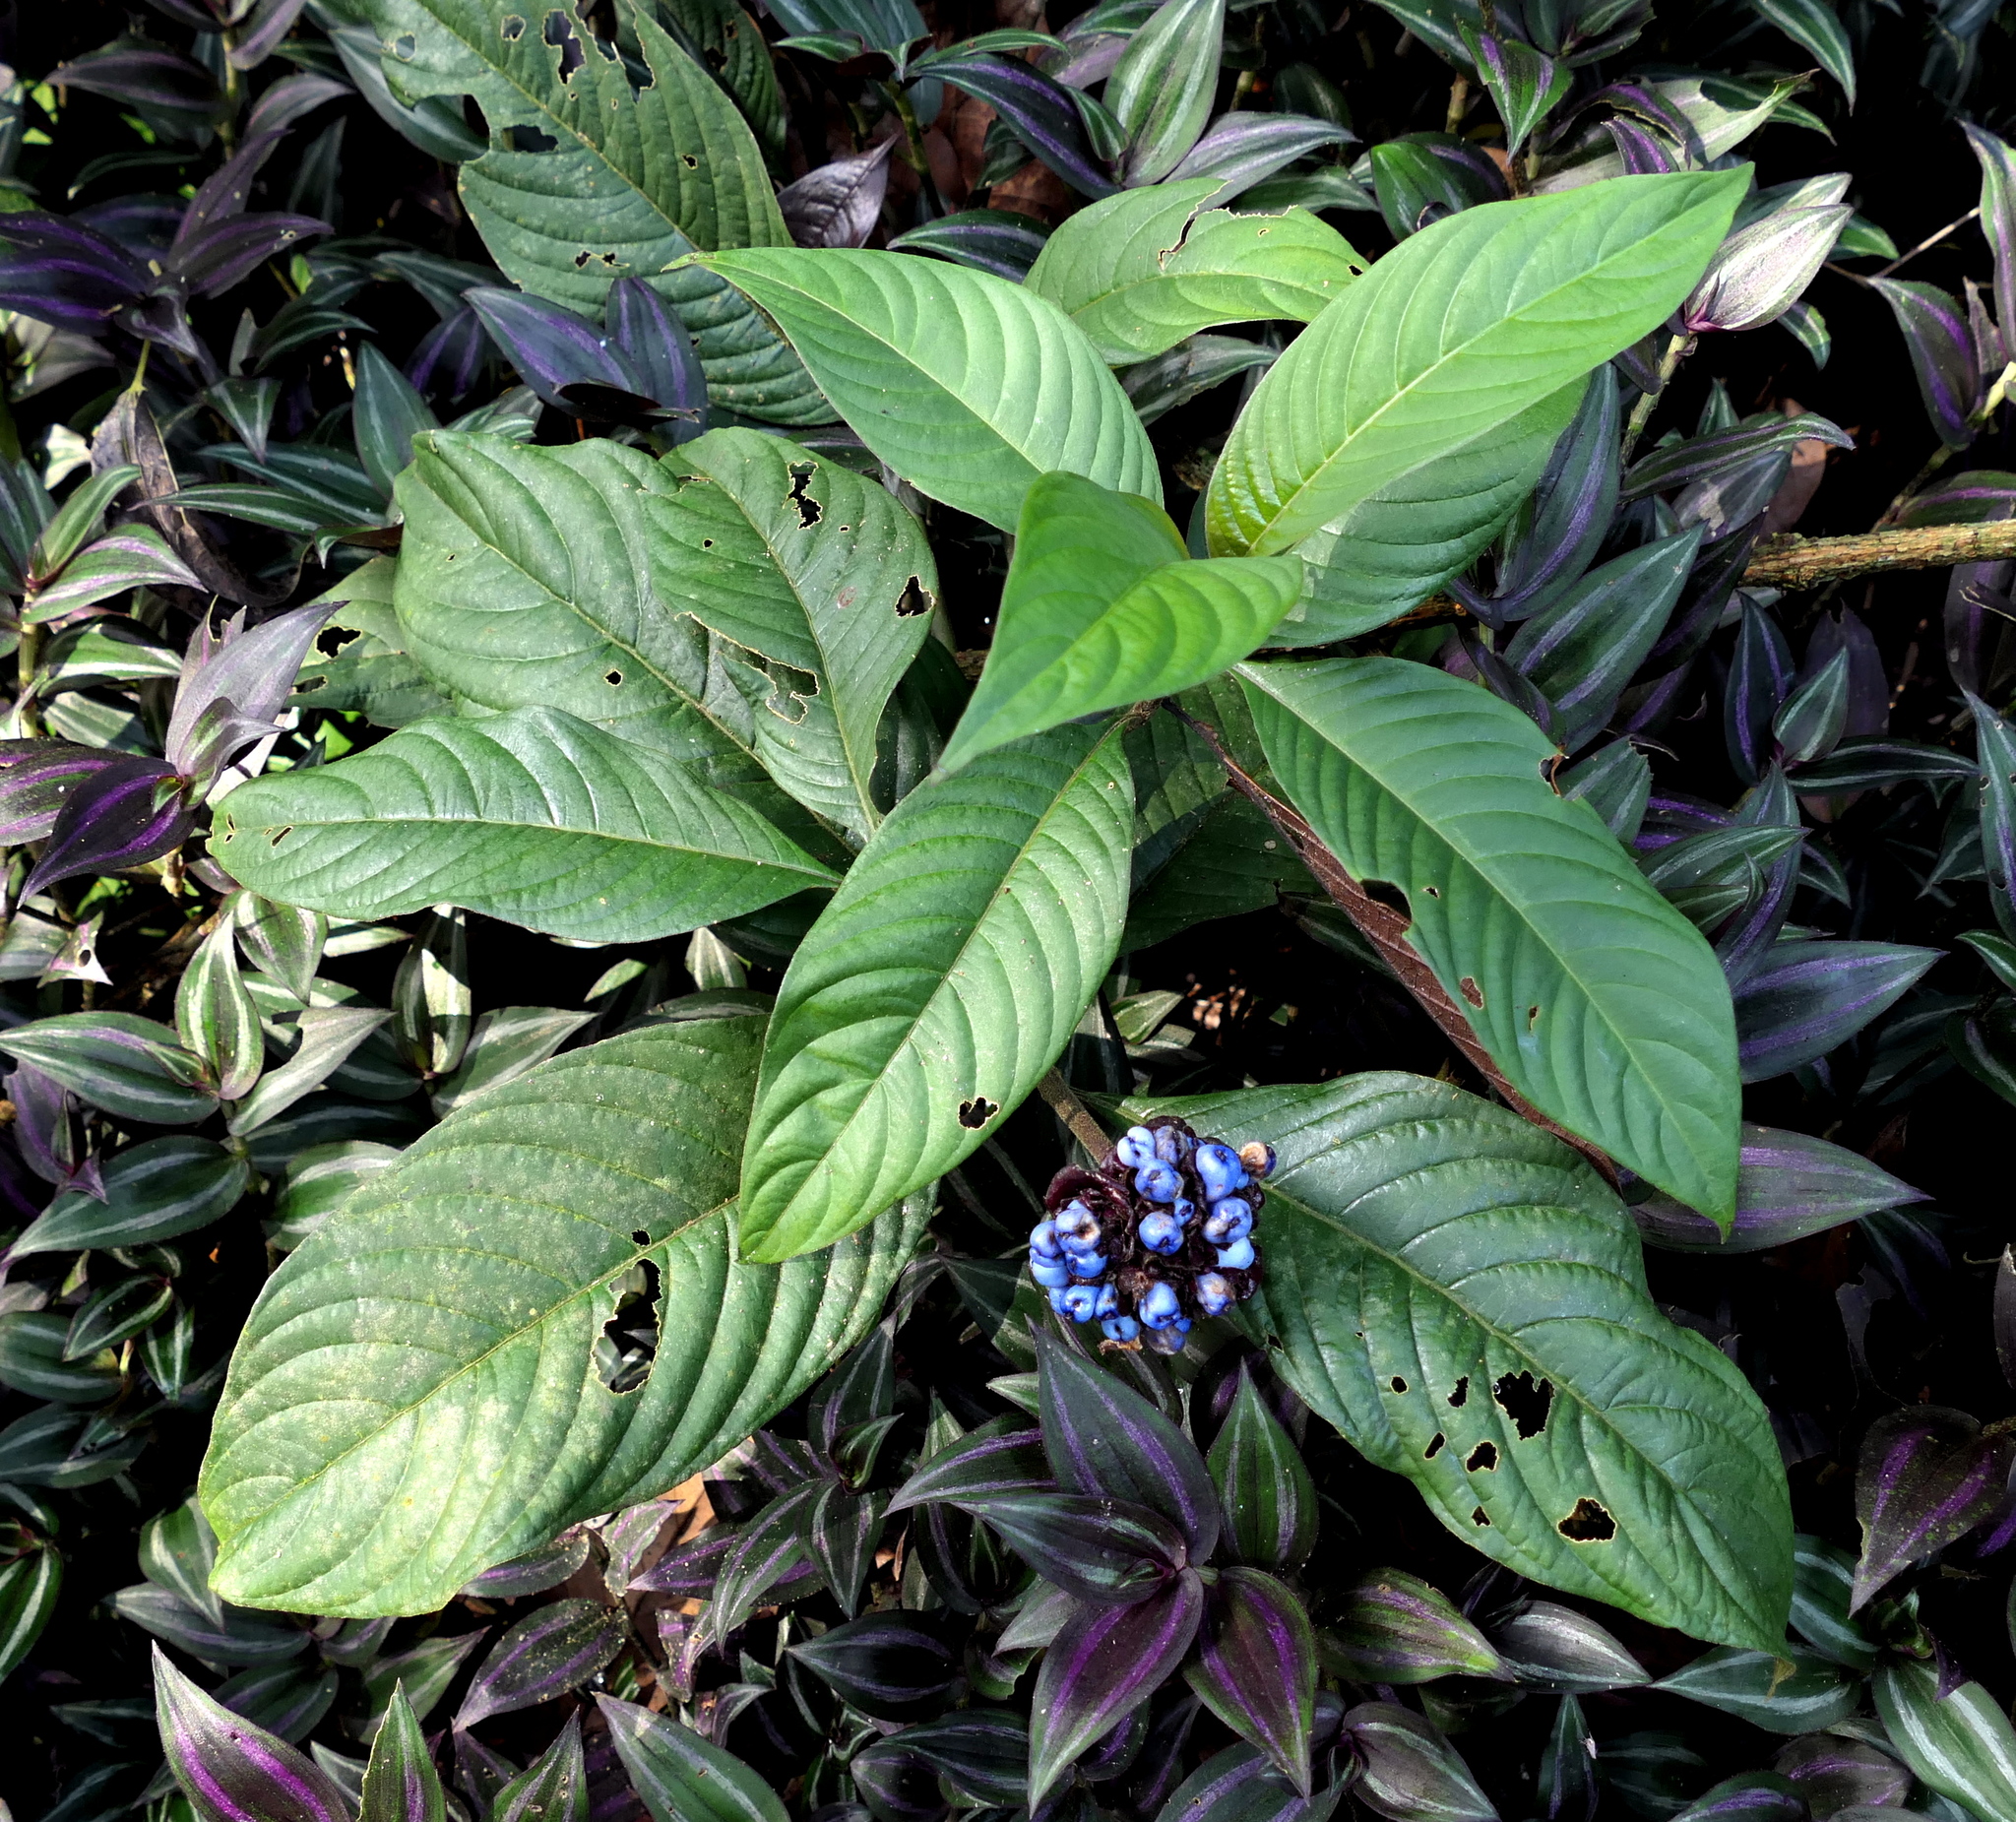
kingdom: Plantae
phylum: Tracheophyta
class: Magnoliopsida
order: Gentianales
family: Rubiaceae
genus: Palicourea
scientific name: Palicourea colorata
